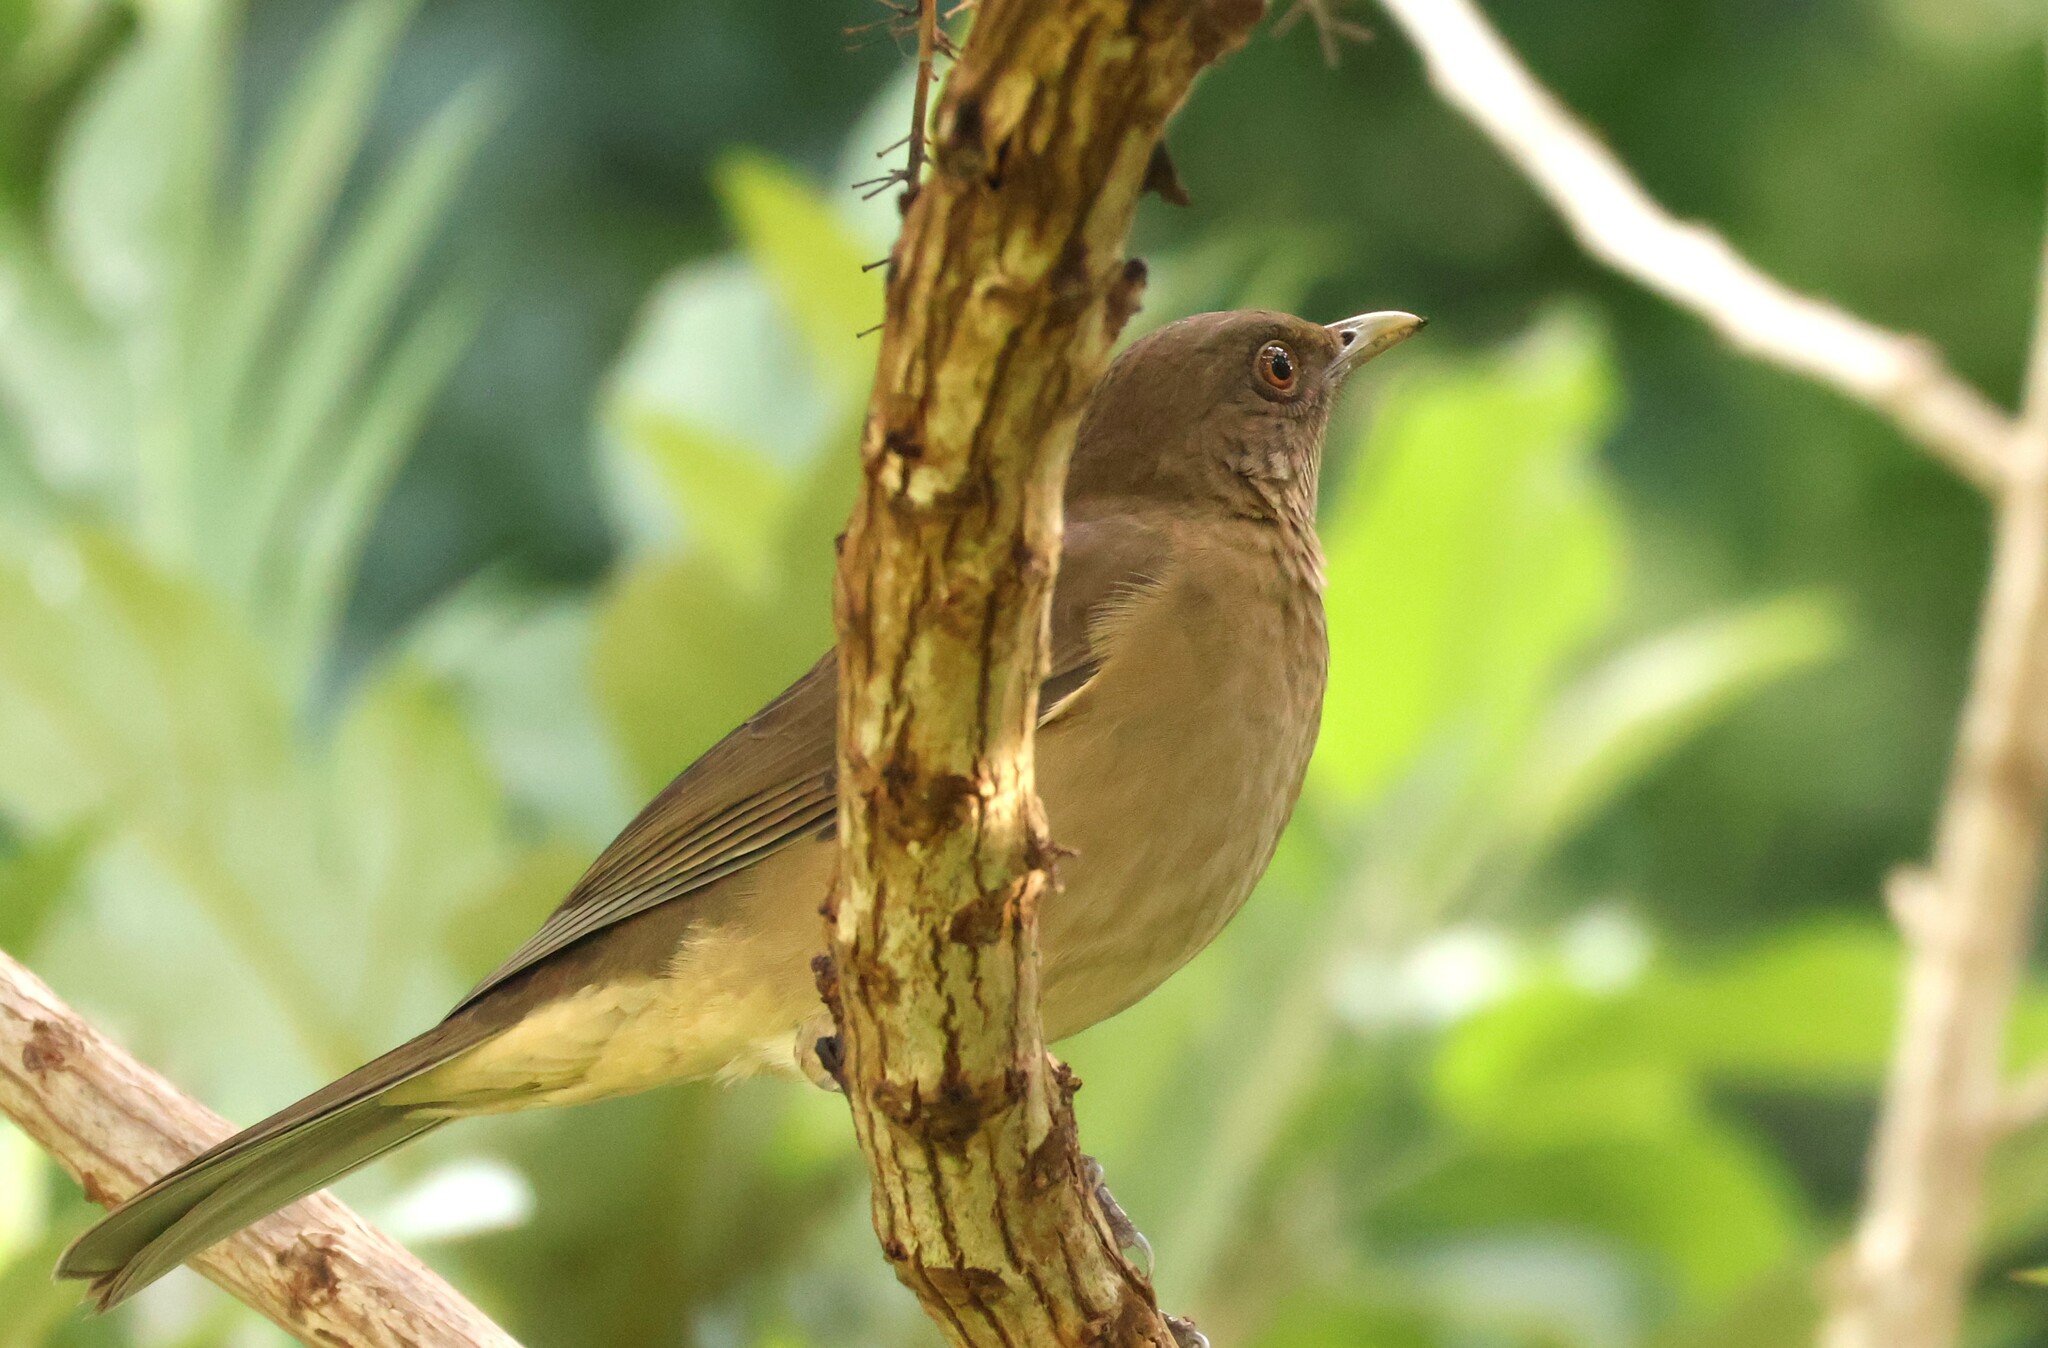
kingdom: Animalia
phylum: Chordata
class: Aves
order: Passeriformes
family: Turdidae
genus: Turdus
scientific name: Turdus grayi
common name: Clay-colored thrush
